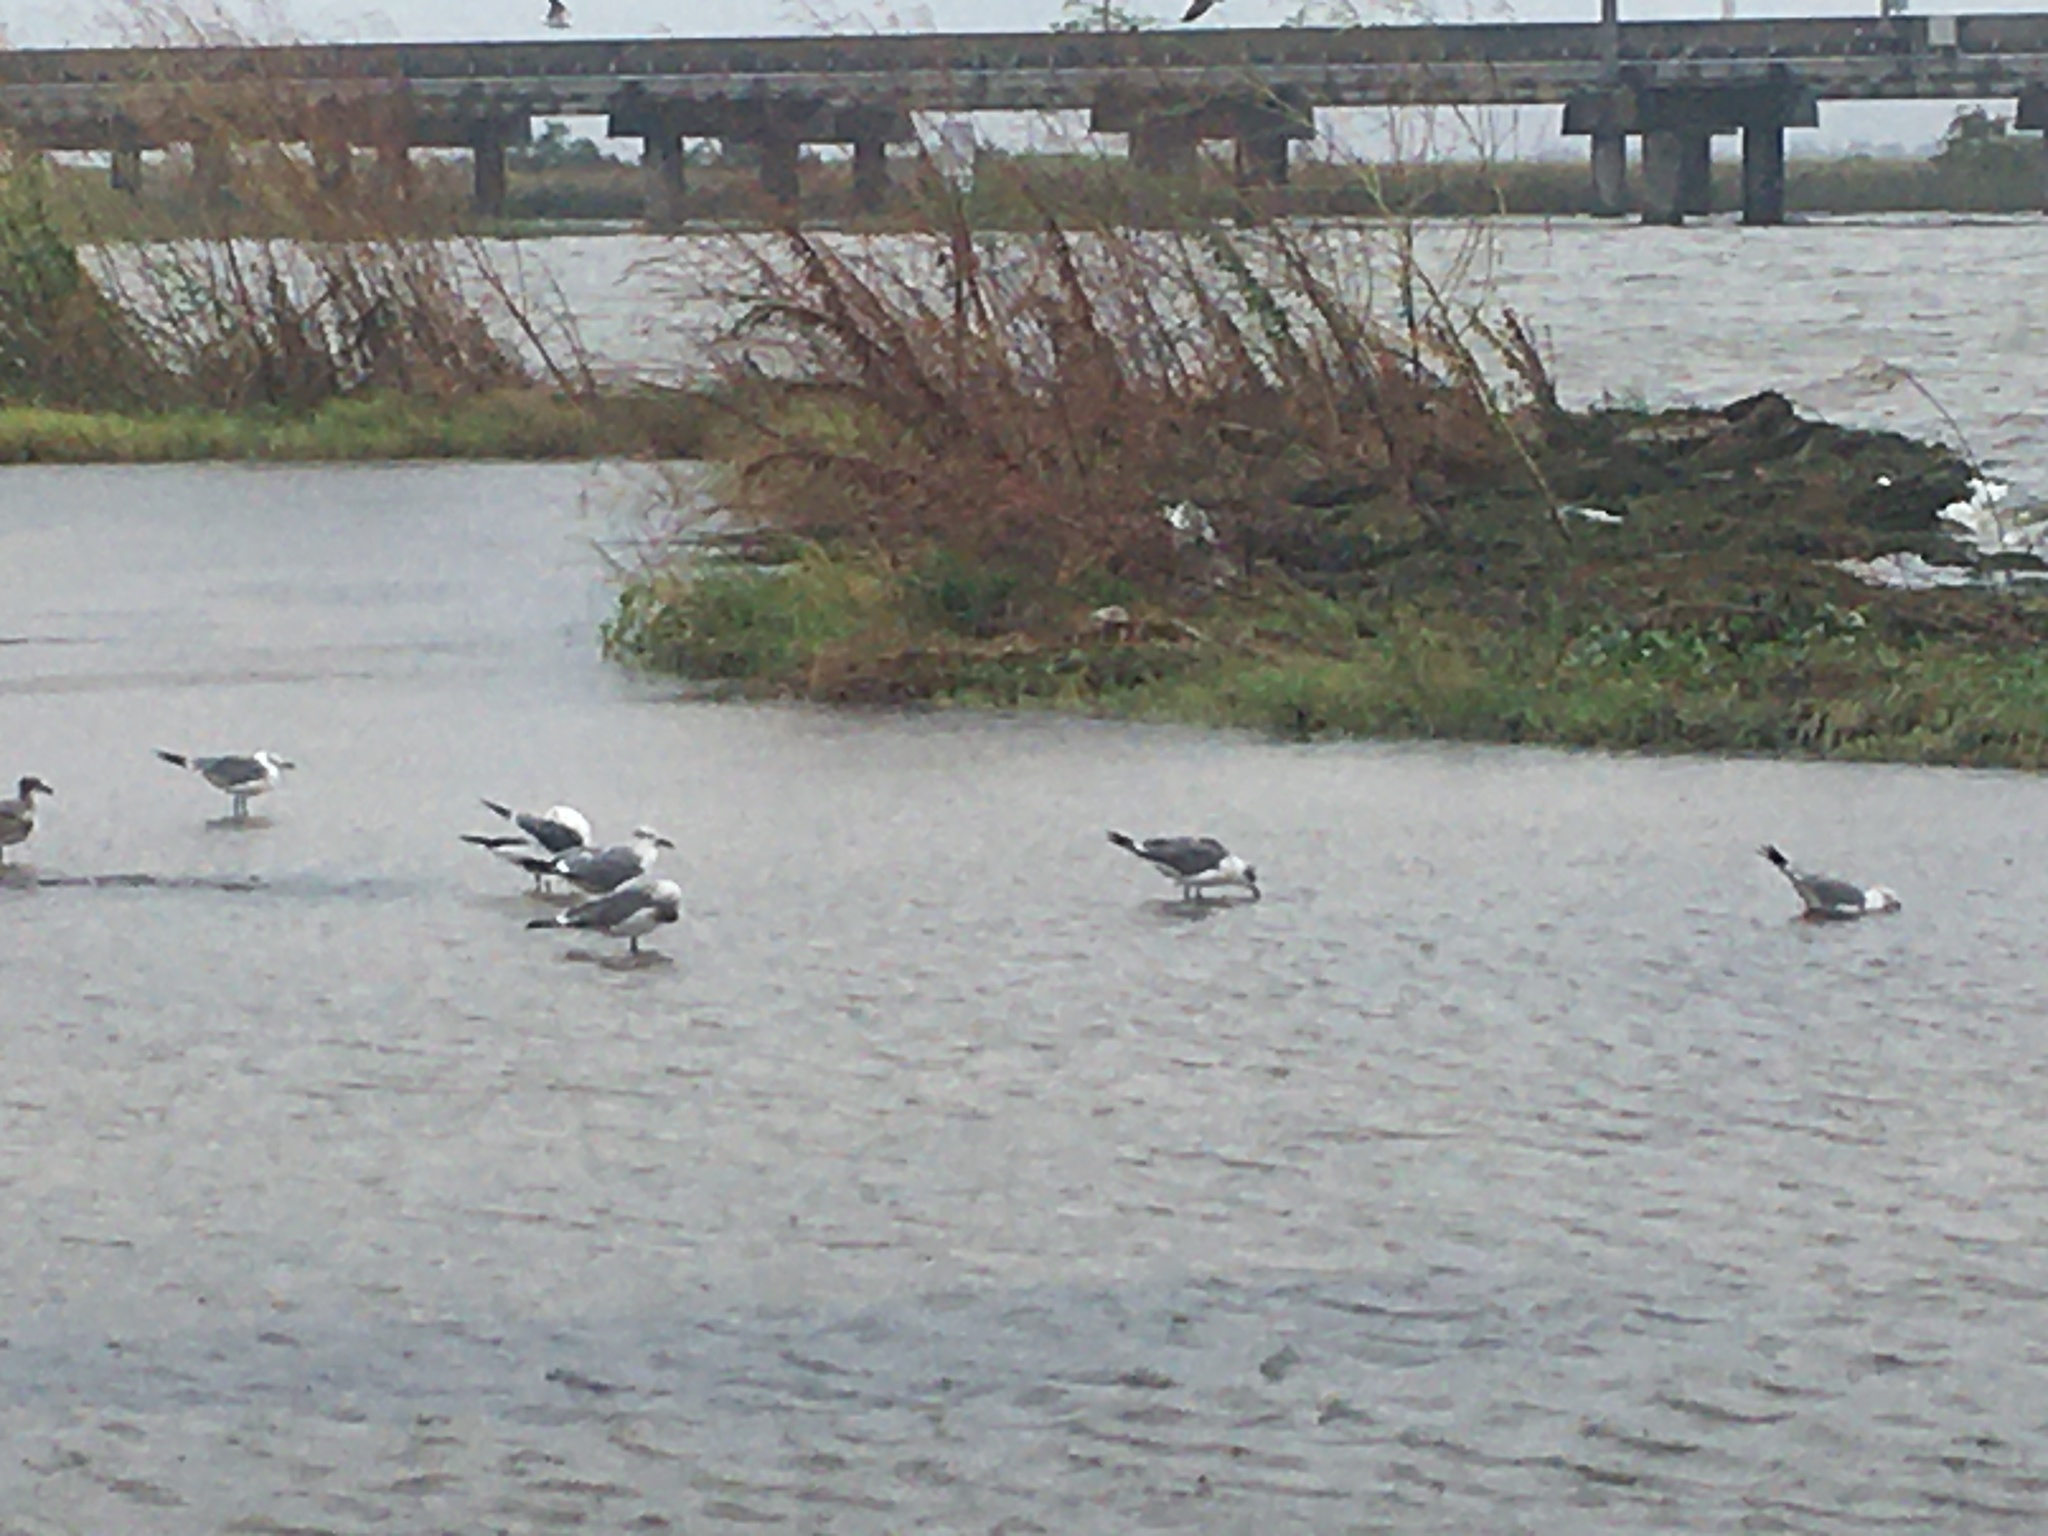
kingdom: Animalia
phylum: Chordata
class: Aves
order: Charadriiformes
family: Laridae
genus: Leucophaeus
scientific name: Leucophaeus atricilla
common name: Laughing gull
